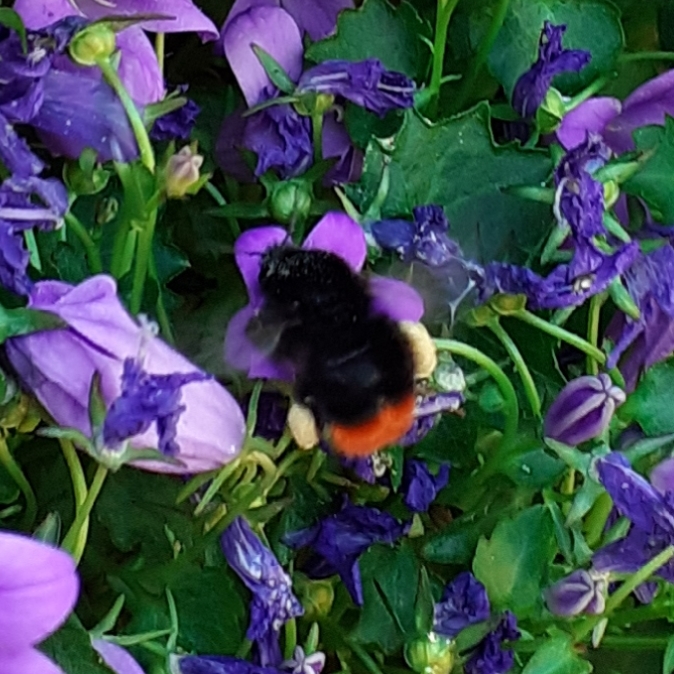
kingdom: Animalia
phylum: Arthropoda
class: Insecta
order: Hymenoptera
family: Apidae
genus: Bombus
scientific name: Bombus lapidarius
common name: Large red-tailed humble-bee
